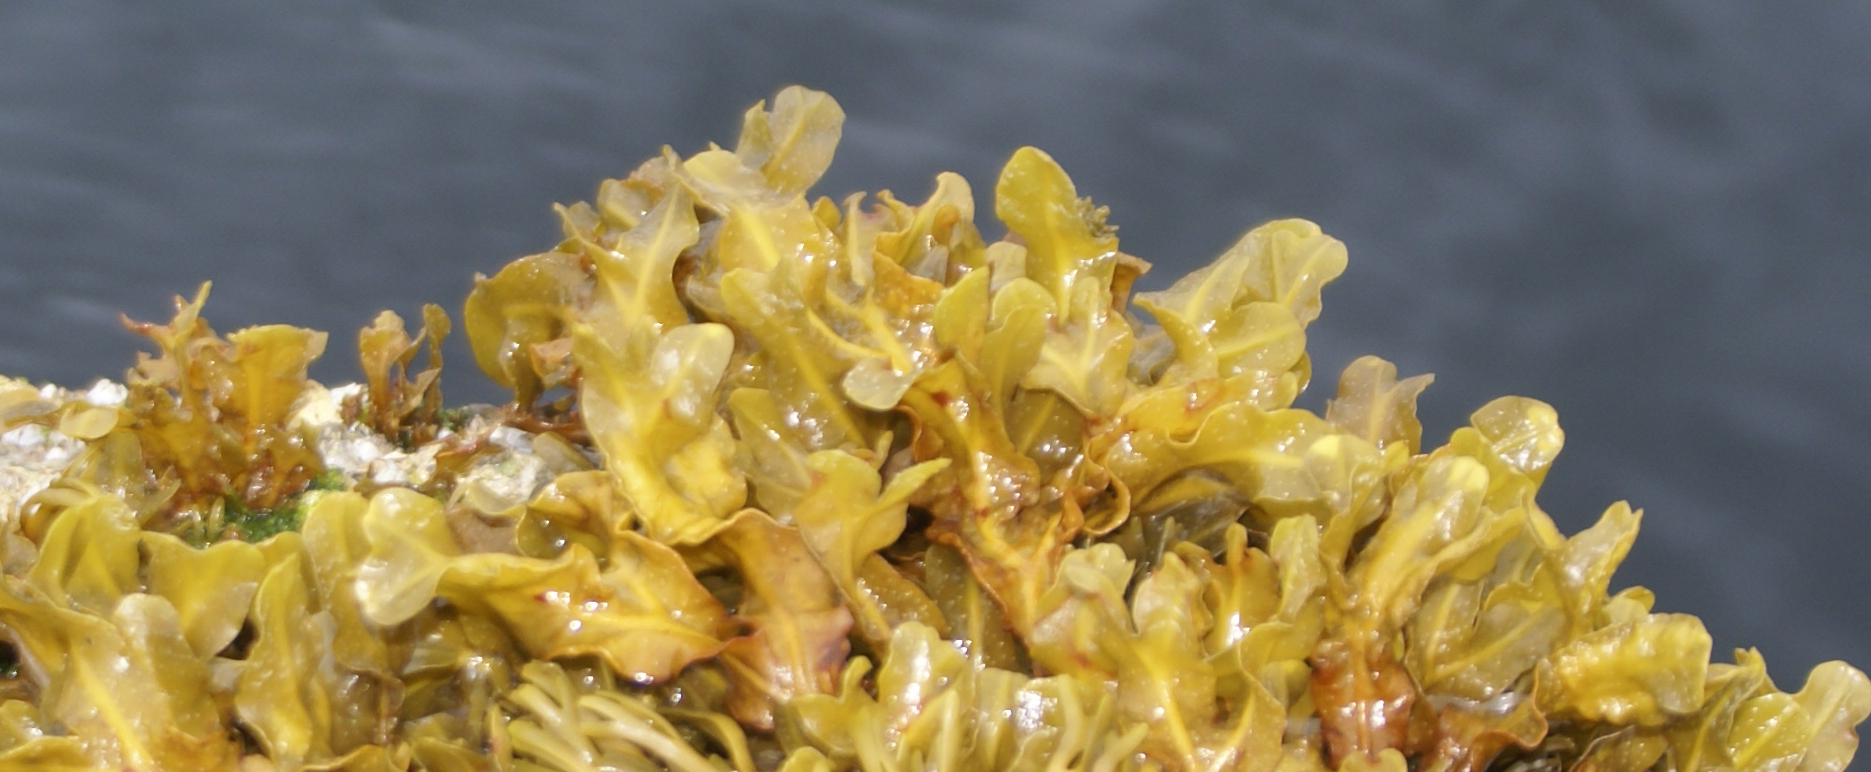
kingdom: Chromista
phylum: Ochrophyta
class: Phaeophyceae
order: Fucales
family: Fucaceae
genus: Fucus
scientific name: Fucus spiralis
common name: Spiral wrack
